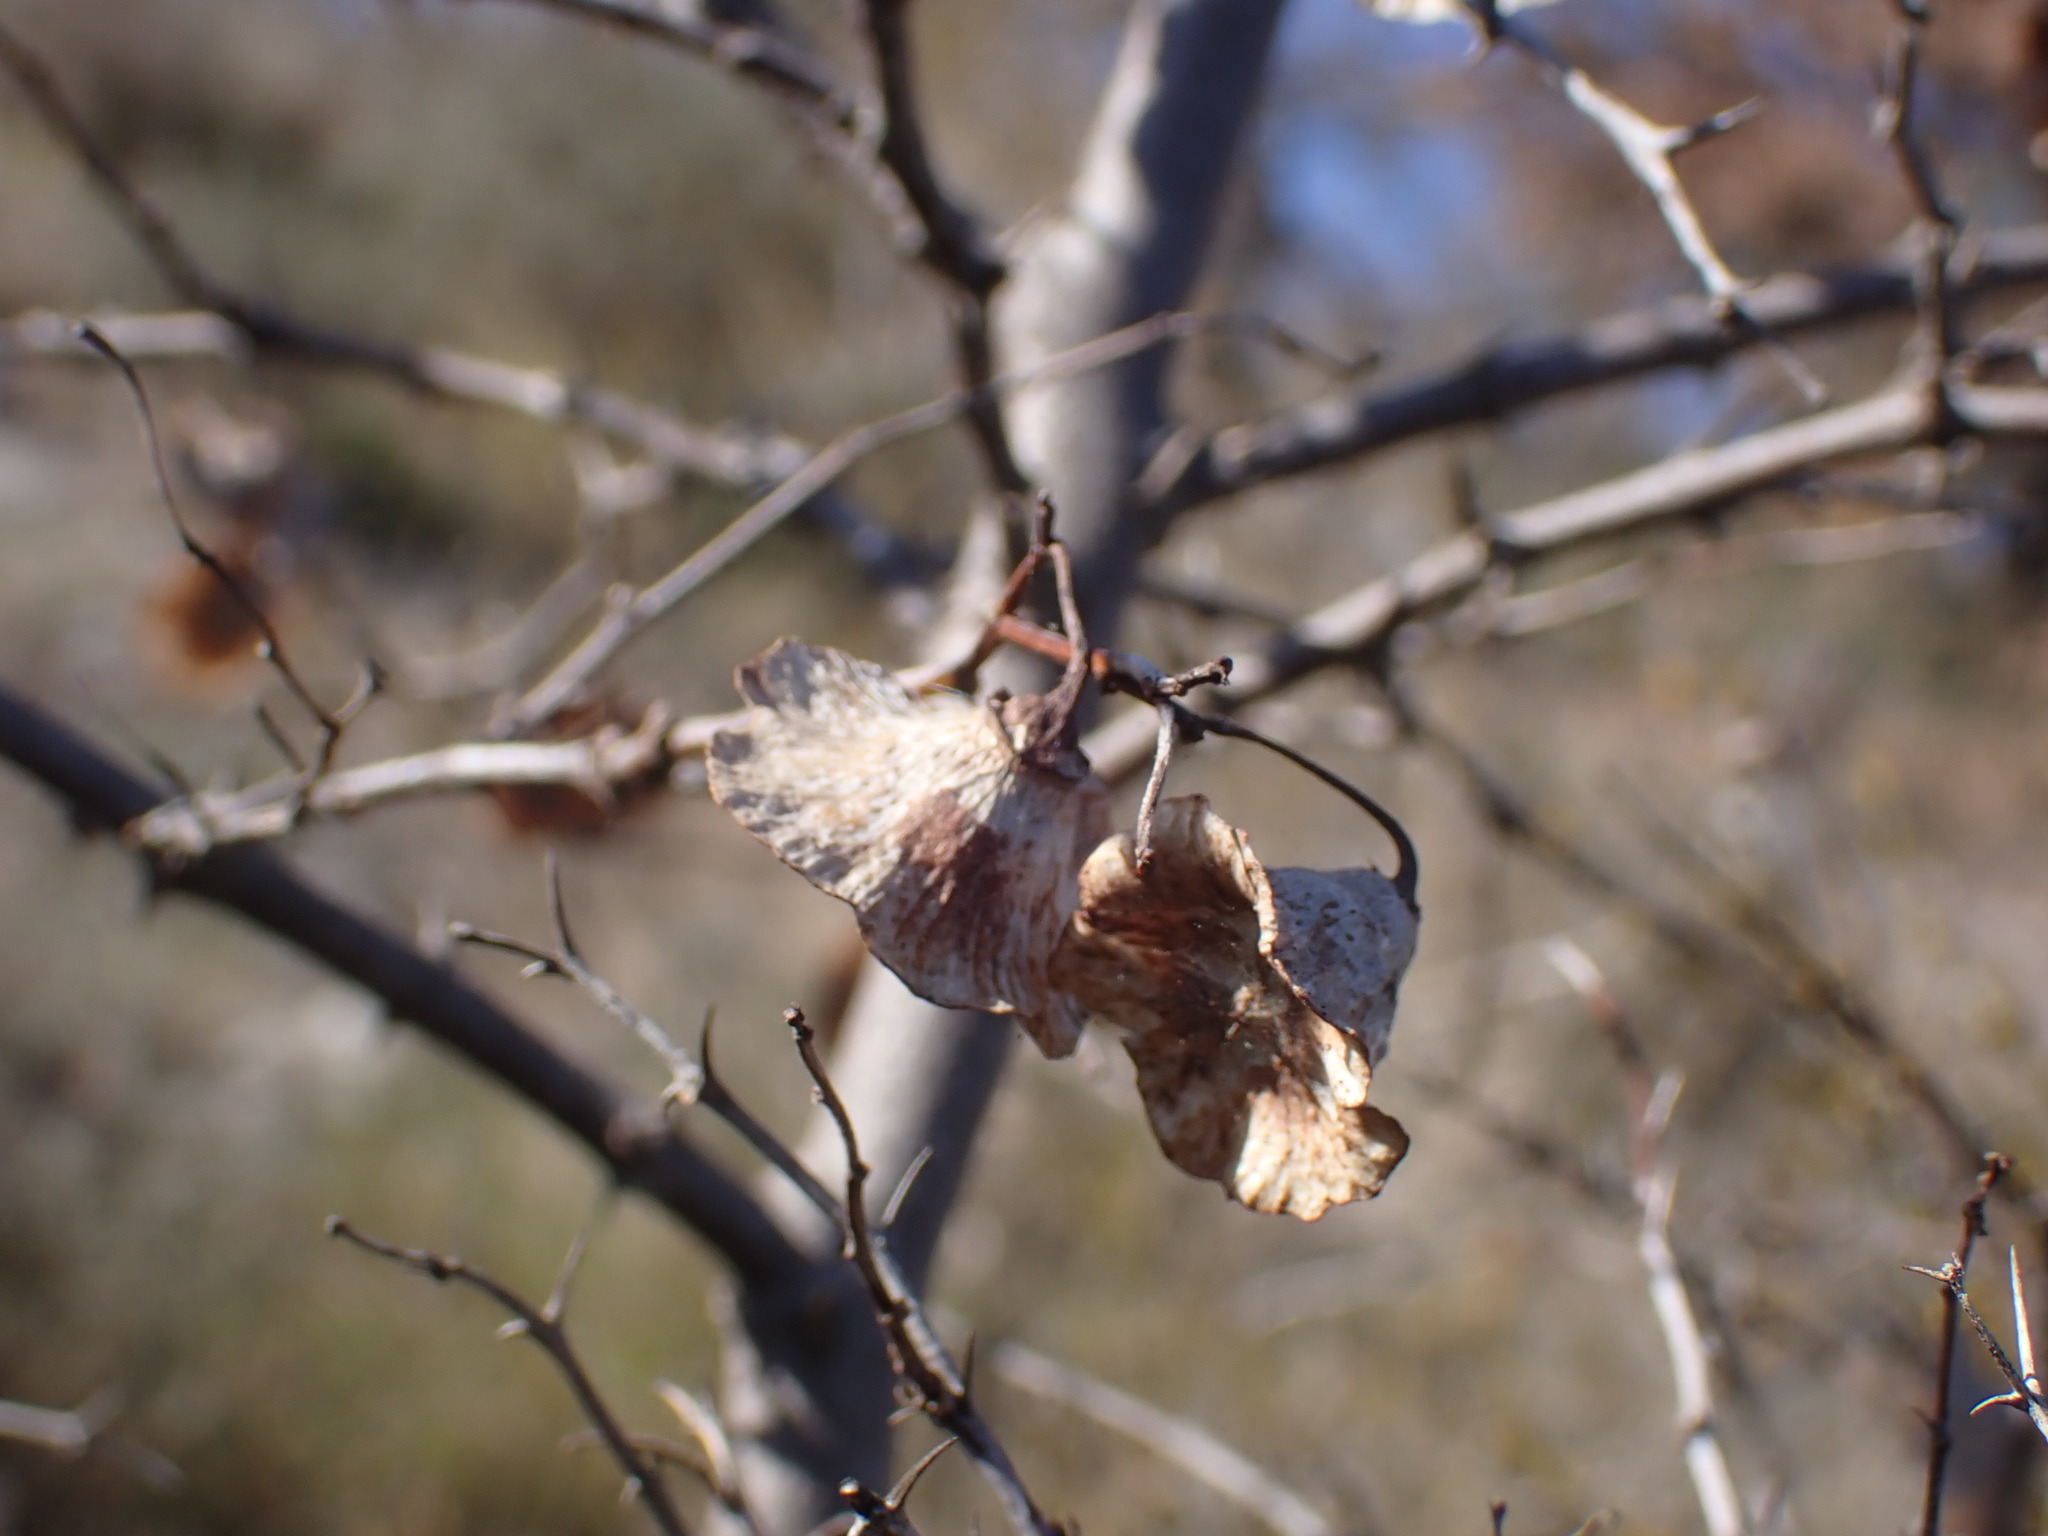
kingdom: Plantae
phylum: Tracheophyta
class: Magnoliopsida
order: Rosales
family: Rhamnaceae
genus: Paliurus
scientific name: Paliurus spina-christi
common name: Jeruselem thorn
